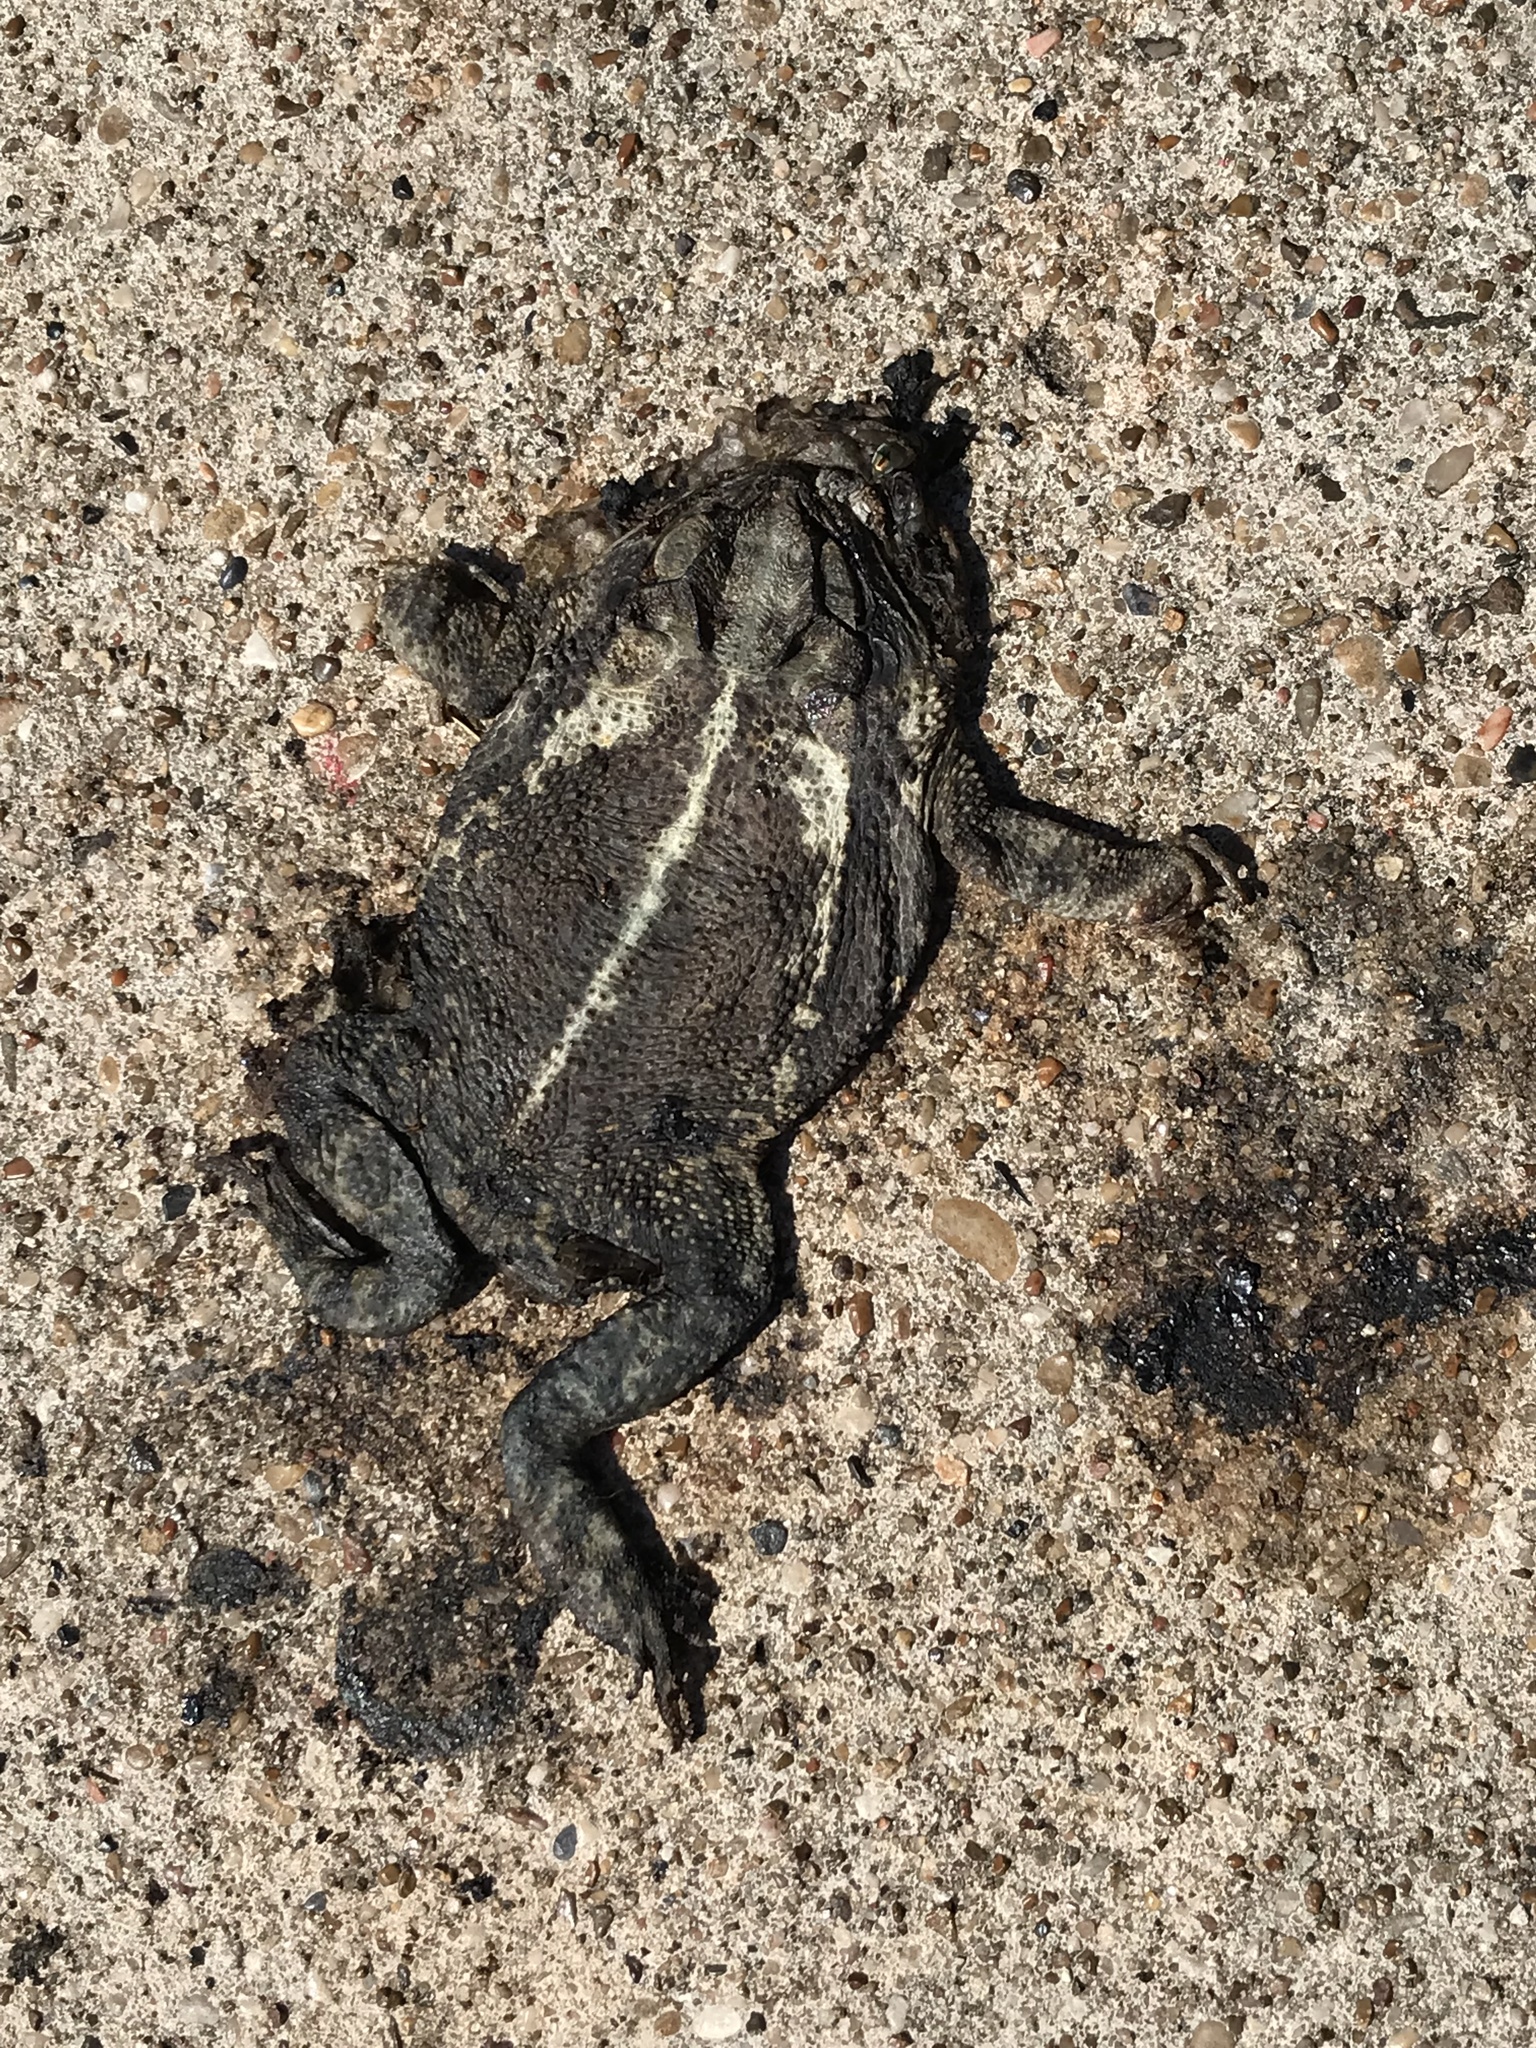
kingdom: Animalia
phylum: Chordata
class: Amphibia
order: Anura
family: Bufonidae
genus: Incilius
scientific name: Incilius nebulifer
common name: Gulf coast toad
